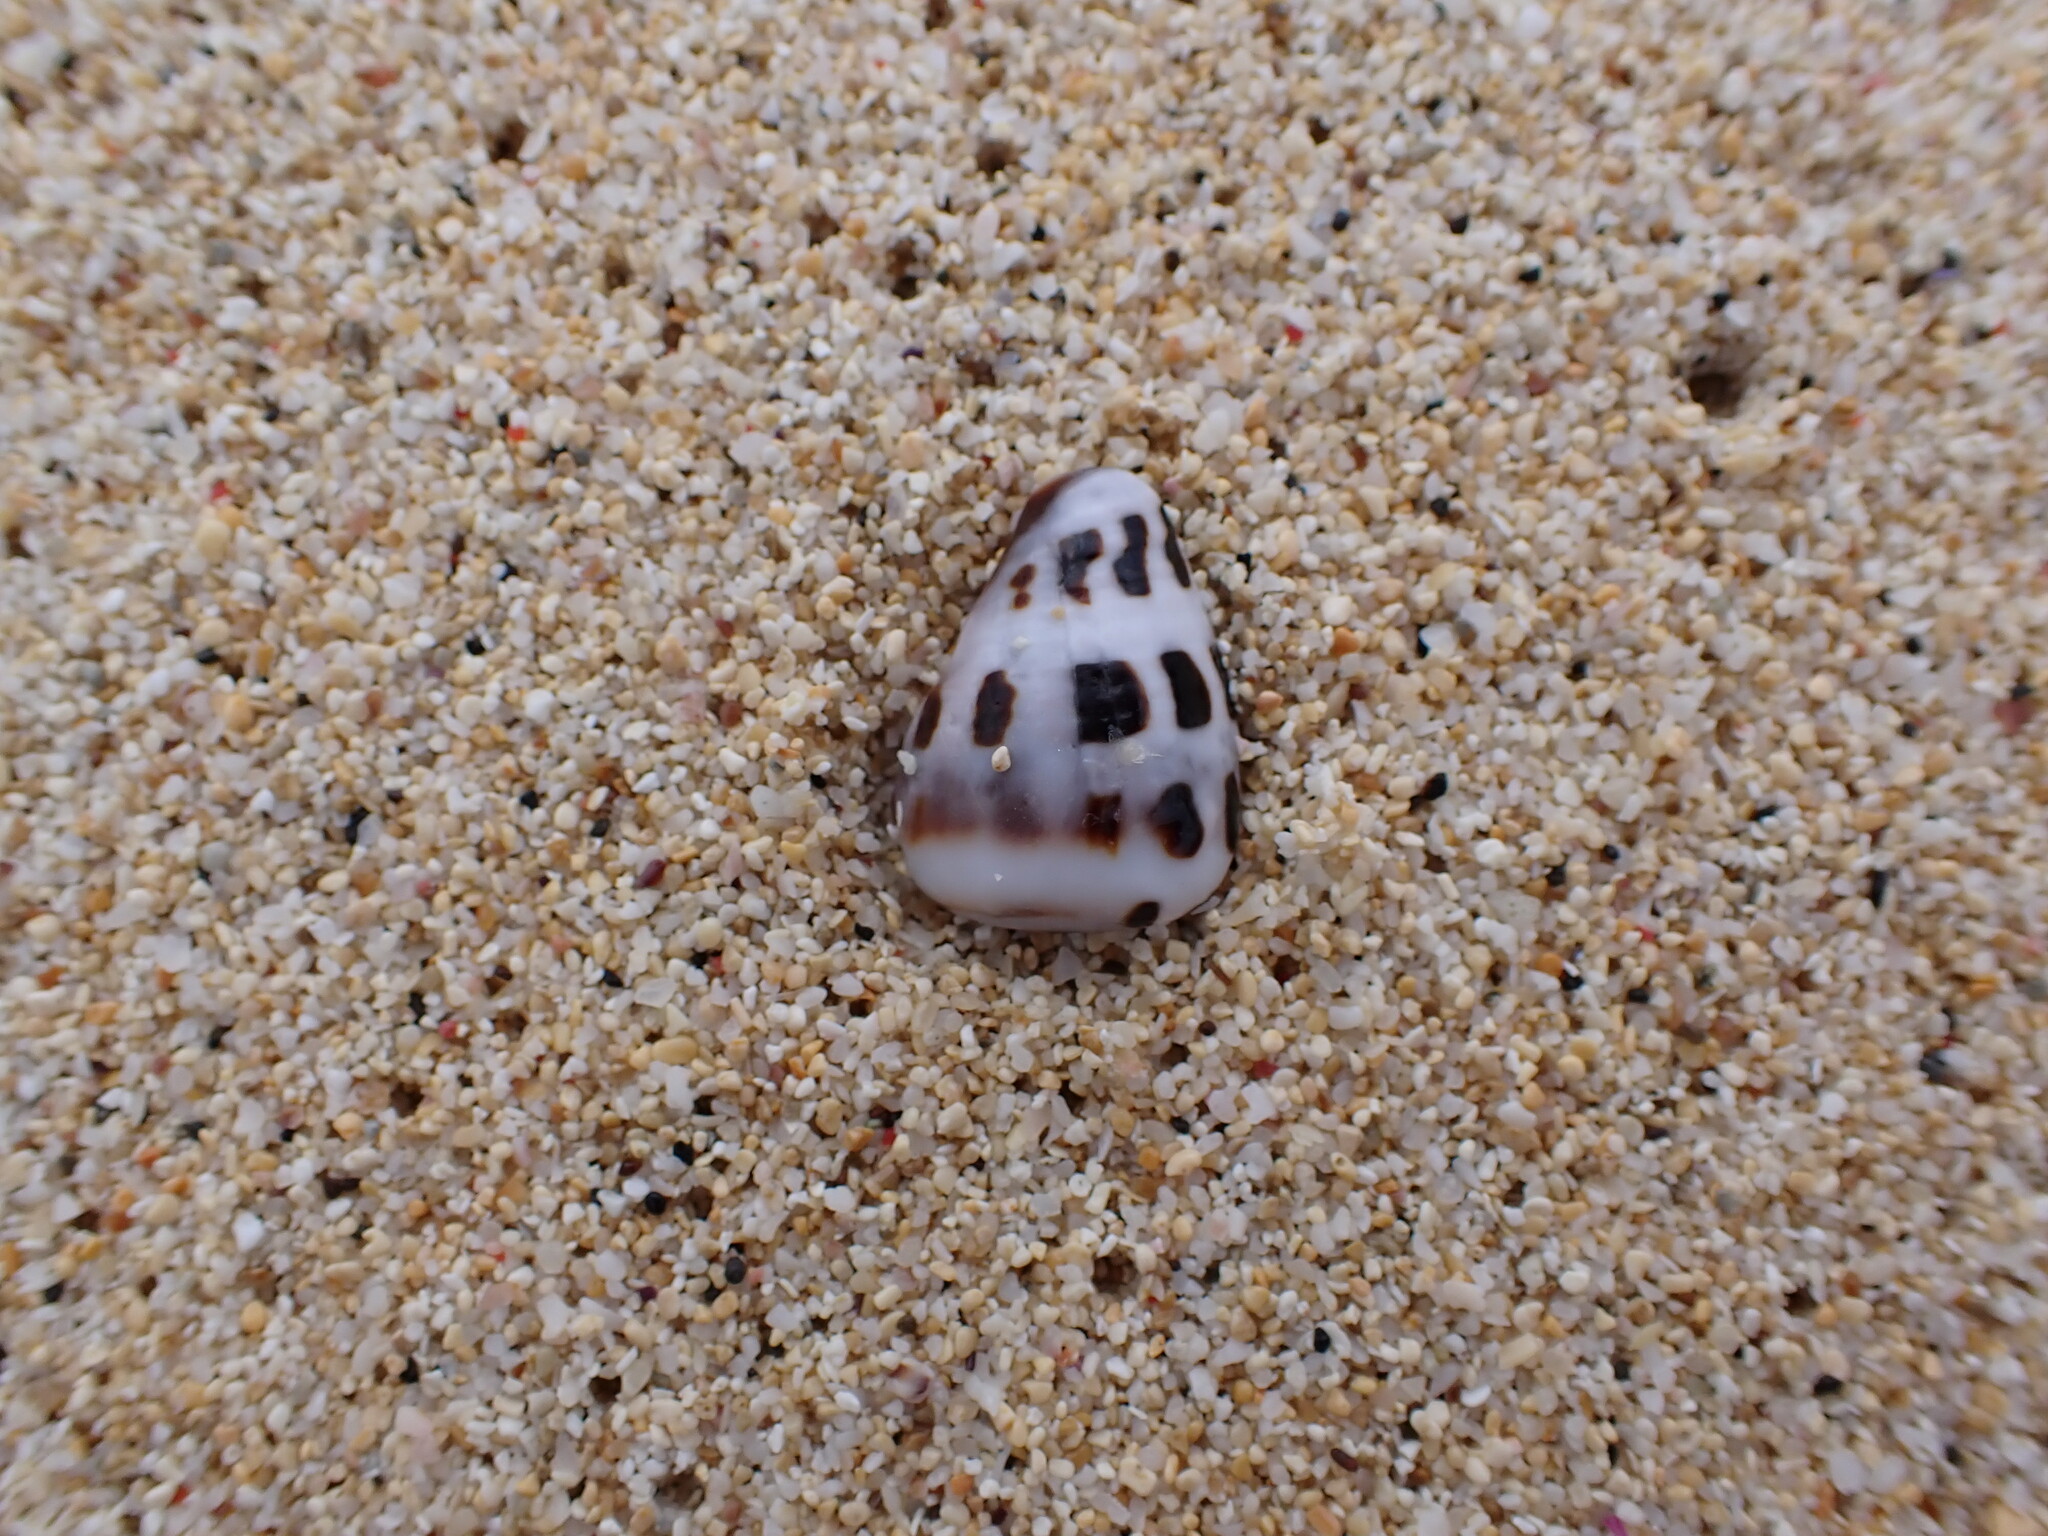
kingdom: Animalia
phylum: Mollusca
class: Gastropoda
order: Neogastropoda
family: Conidae
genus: Conus
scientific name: Conus ebraeus
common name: Hebrew cone
